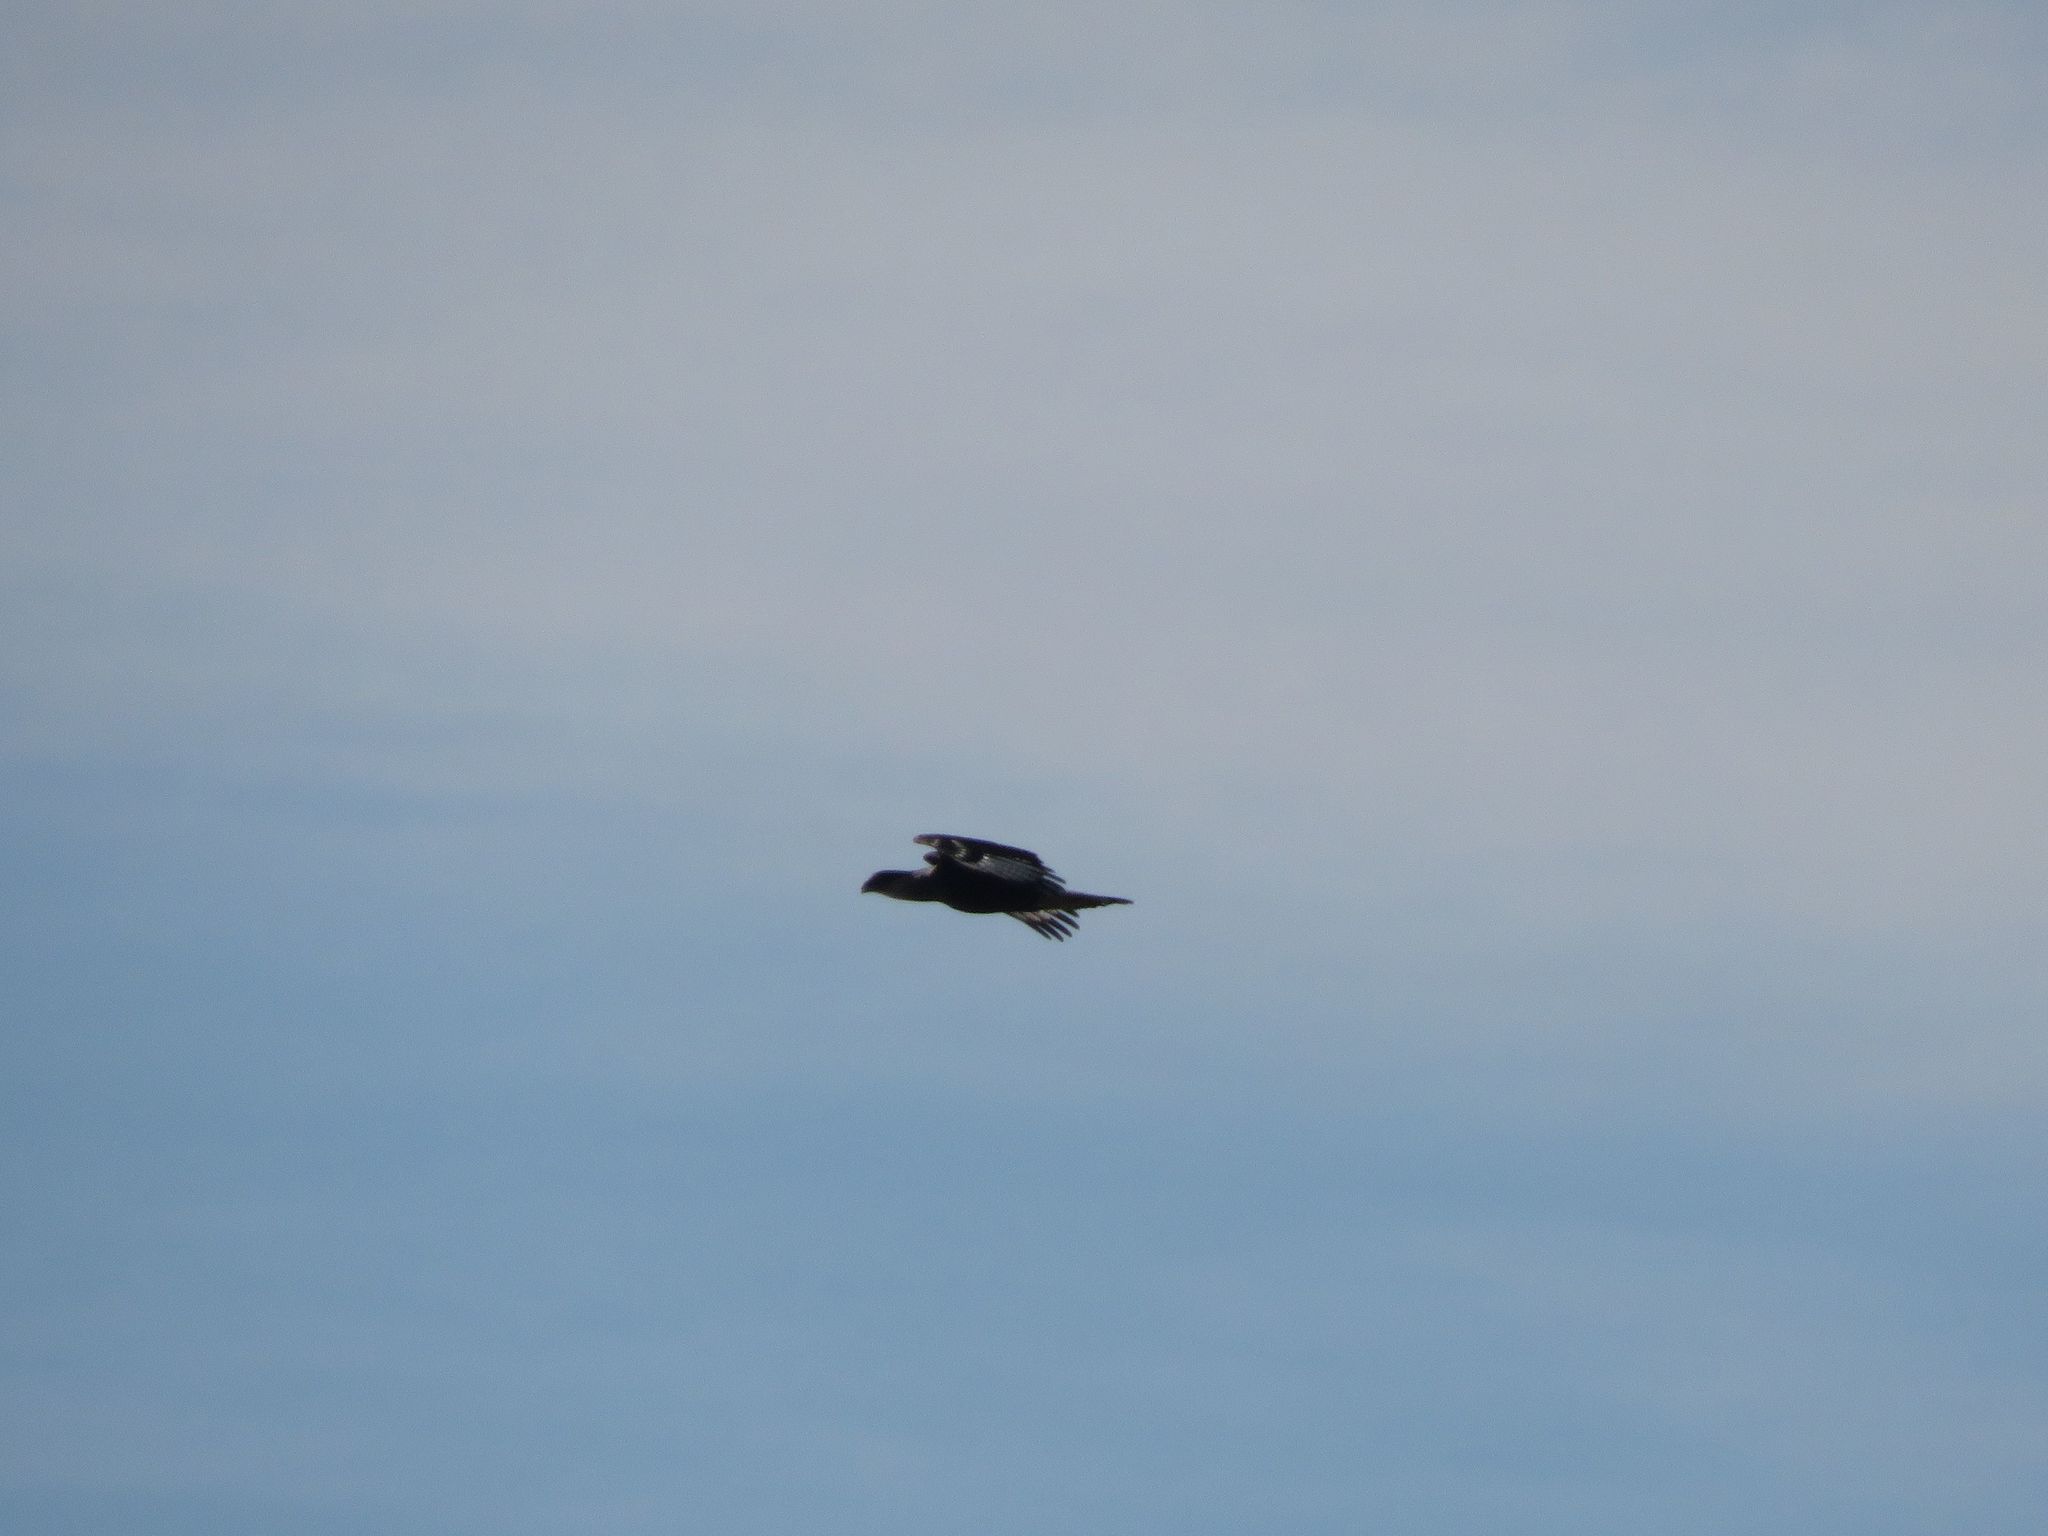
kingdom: Animalia
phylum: Chordata
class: Aves
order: Falconiformes
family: Falconidae
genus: Caracara
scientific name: Caracara plancus
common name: Southern caracara
